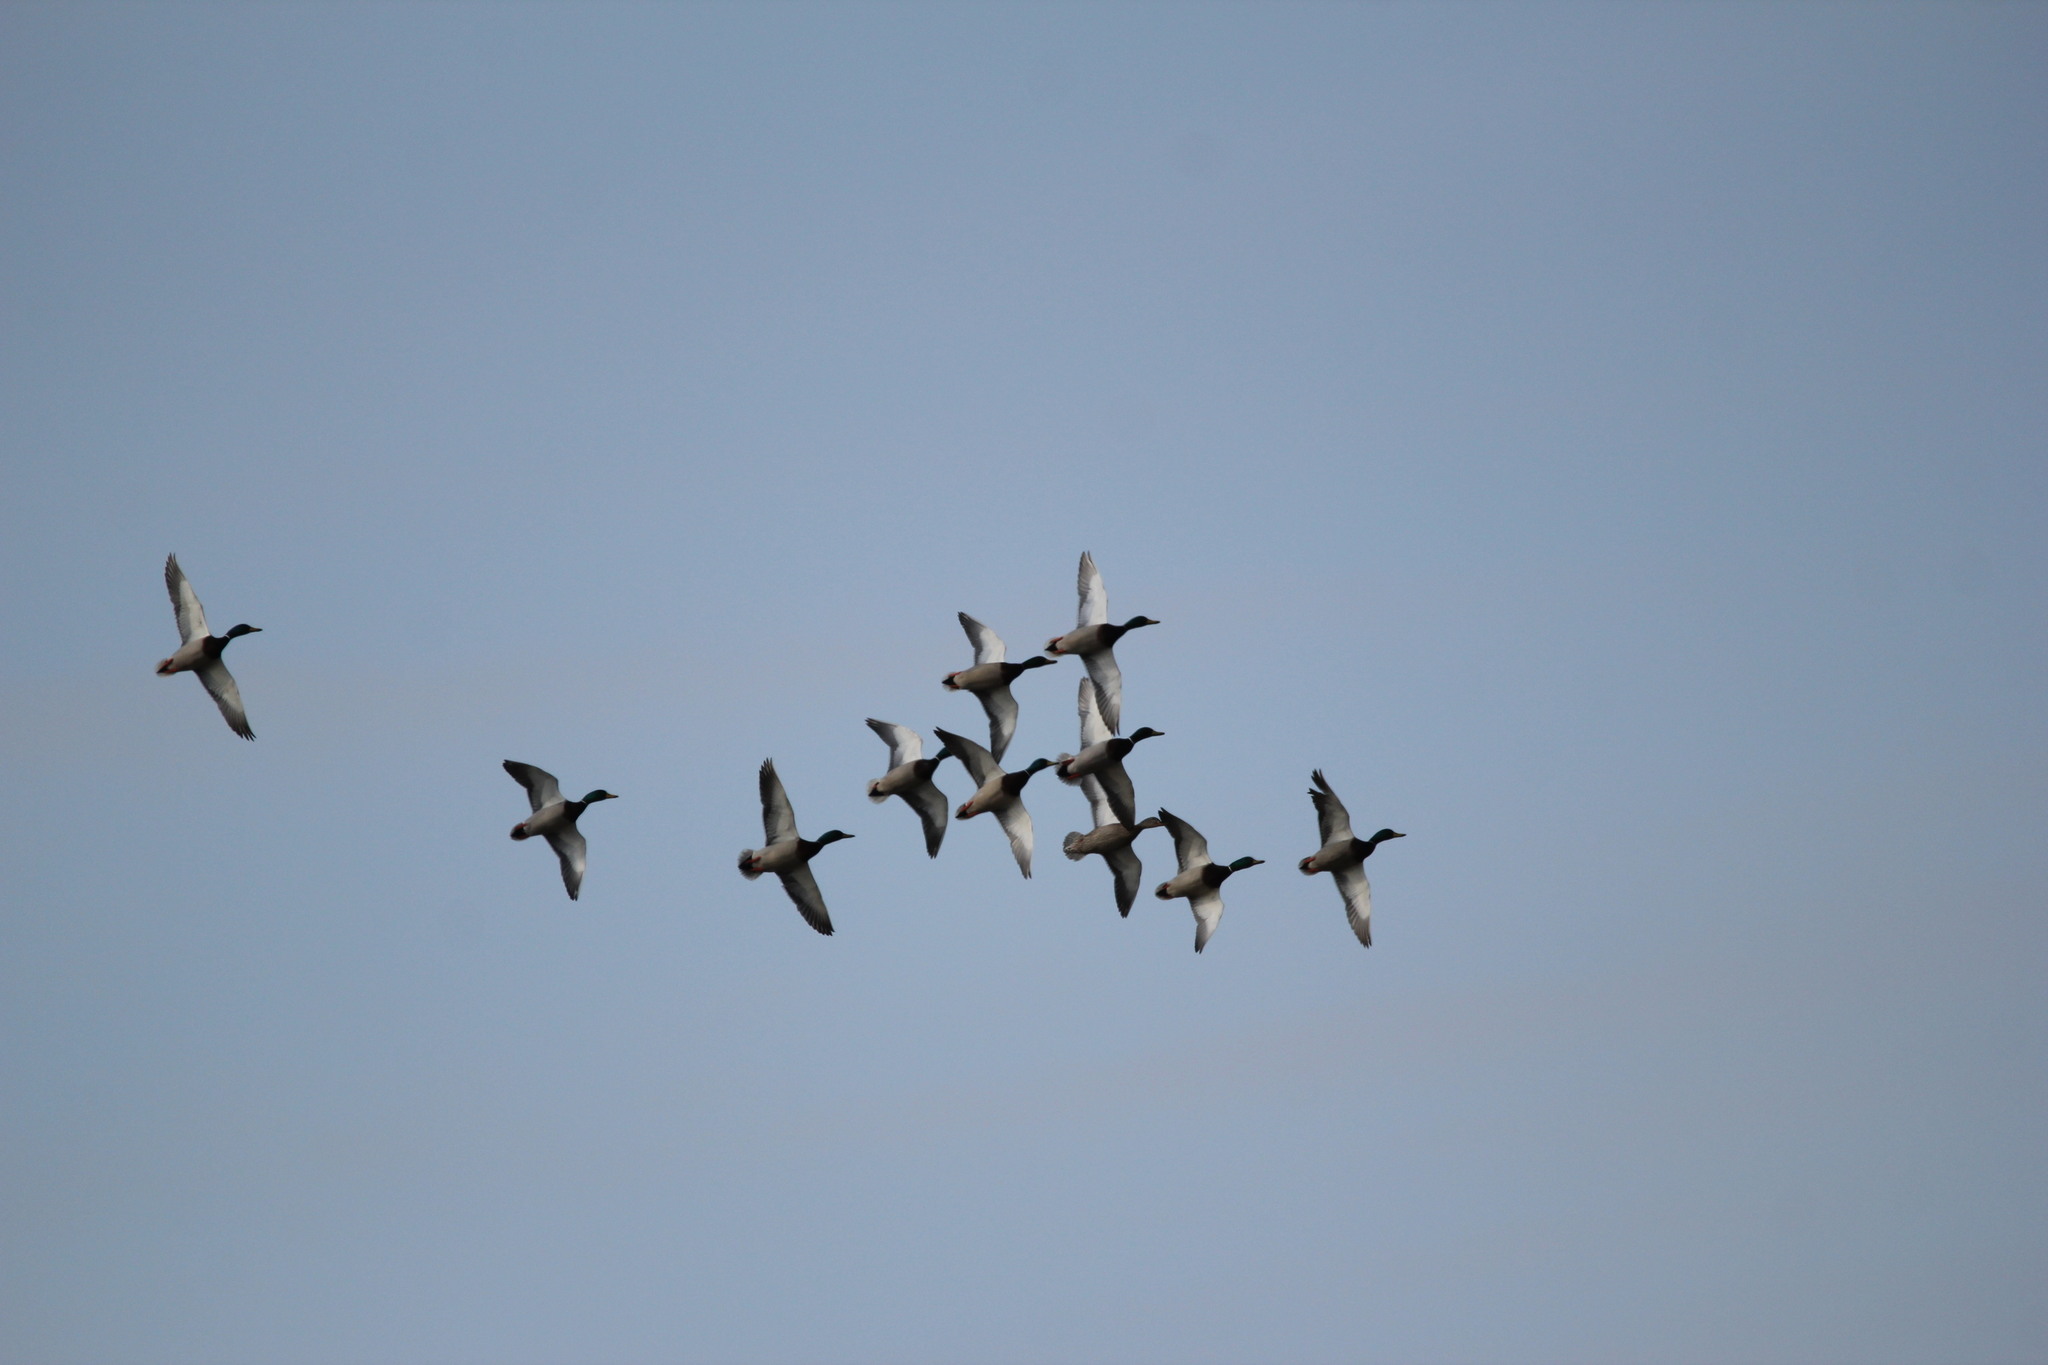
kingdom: Animalia
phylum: Chordata
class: Aves
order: Anseriformes
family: Anatidae
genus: Anas
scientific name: Anas platyrhynchos
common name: Mallard
